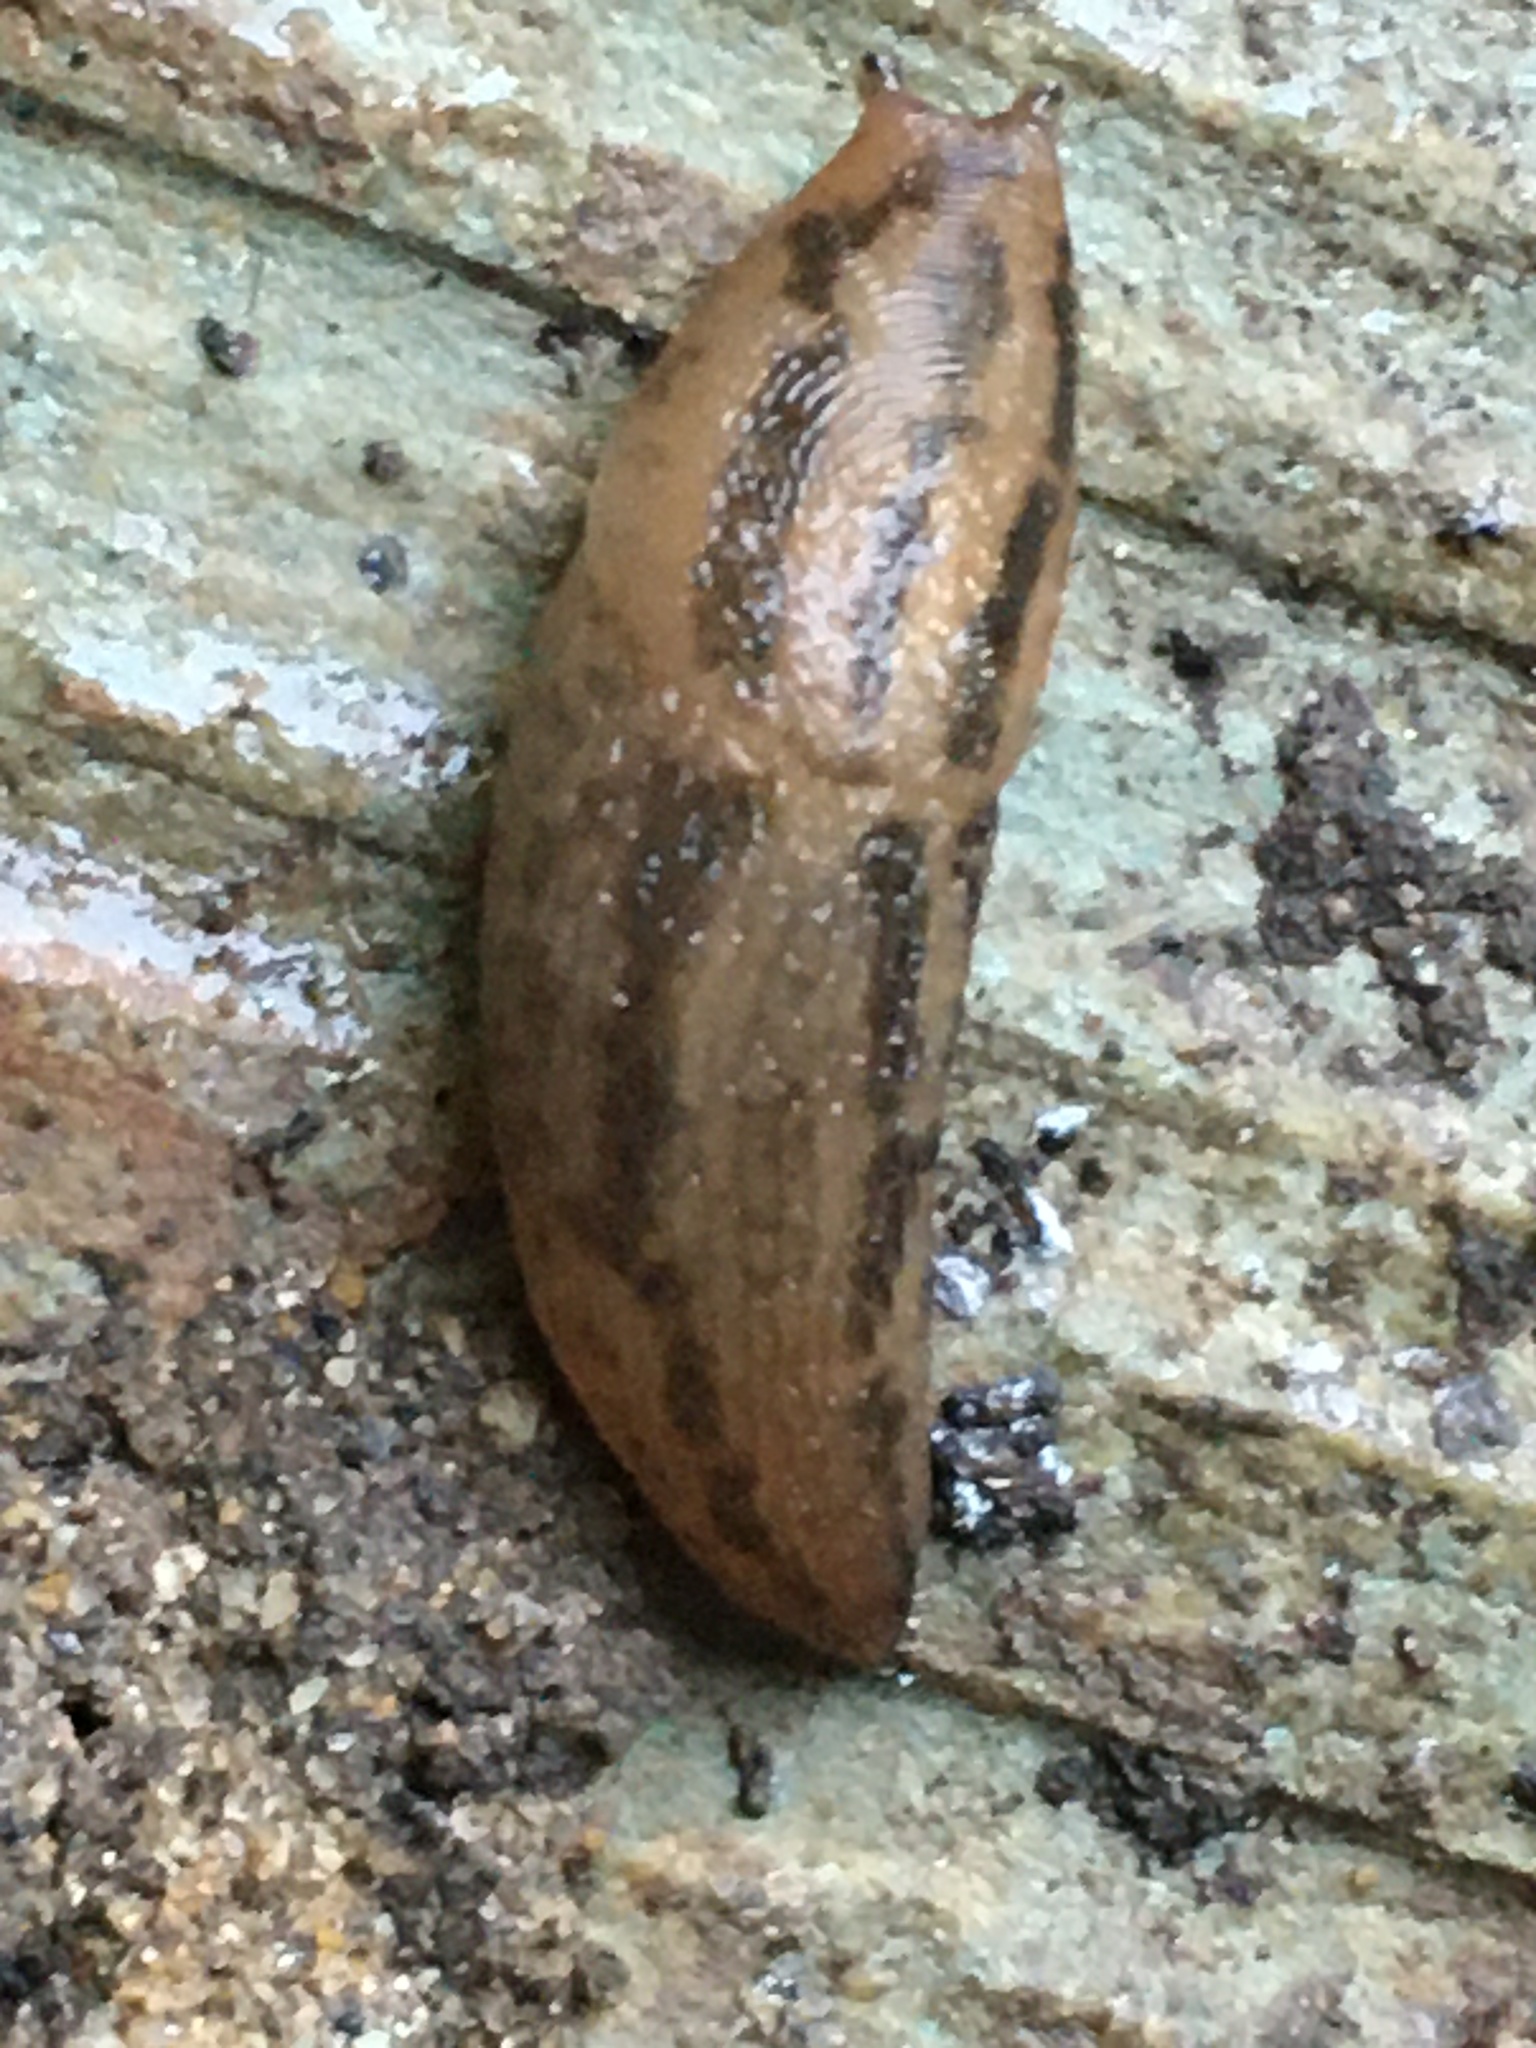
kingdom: Animalia
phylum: Mollusca
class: Gastropoda
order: Stylommatophora
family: Limacidae
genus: Ambigolimax
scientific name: Ambigolimax
